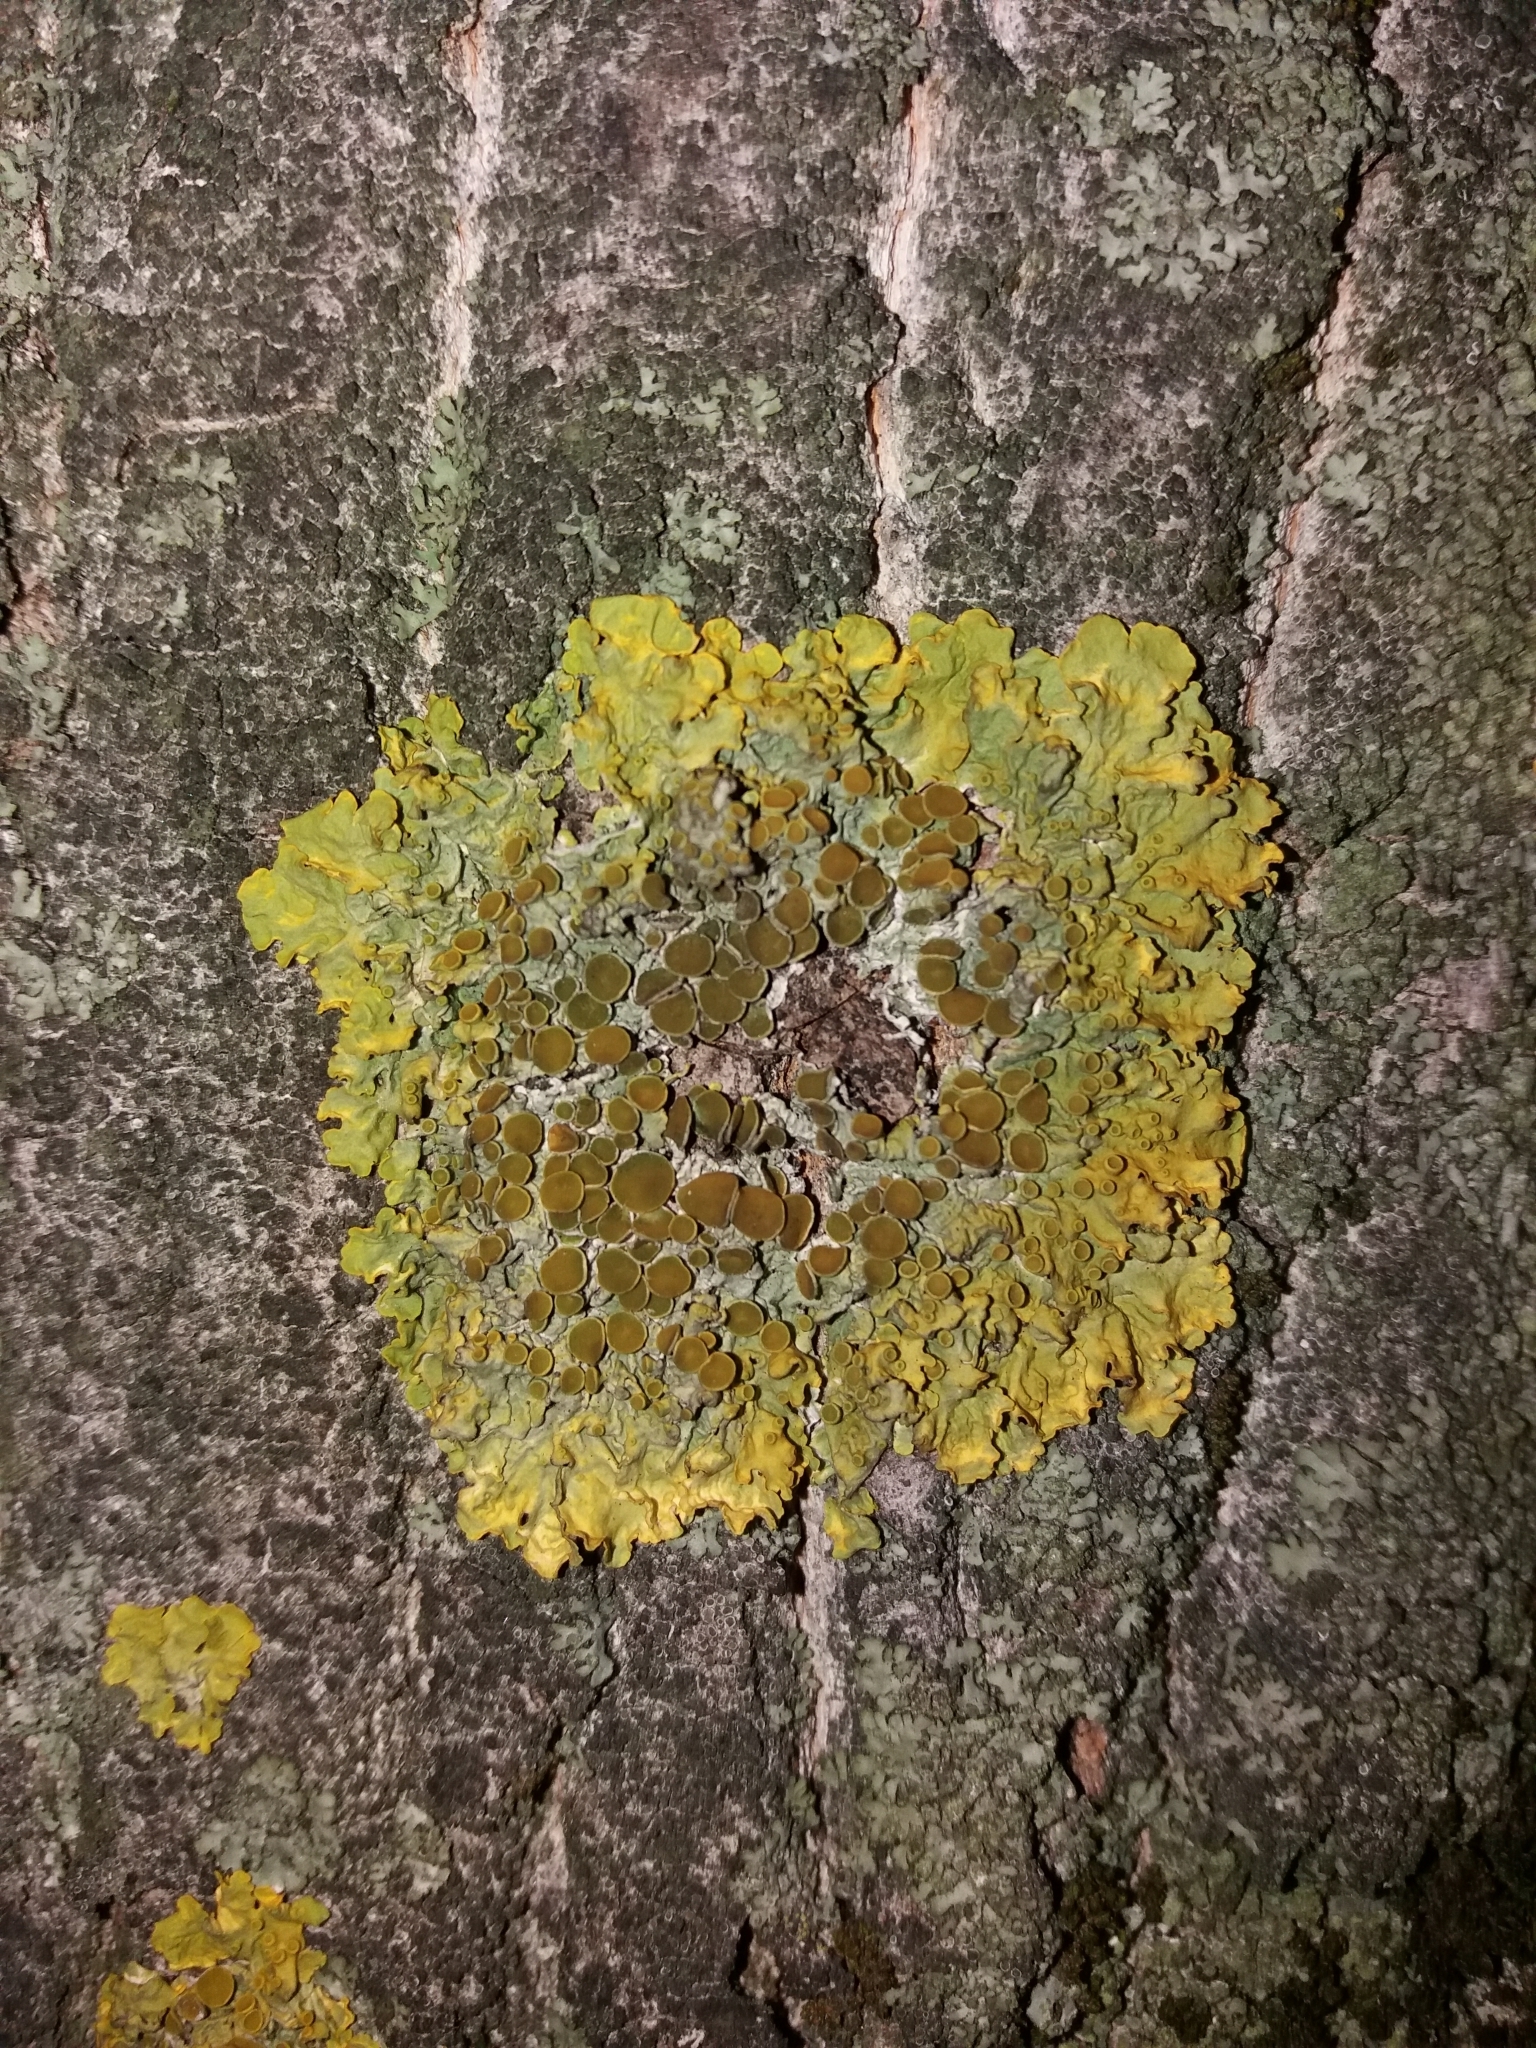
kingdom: Fungi
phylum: Ascomycota
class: Lecanoromycetes
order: Teloschistales
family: Teloschistaceae
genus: Xanthoria
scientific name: Xanthoria parietina
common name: Common orange lichen
